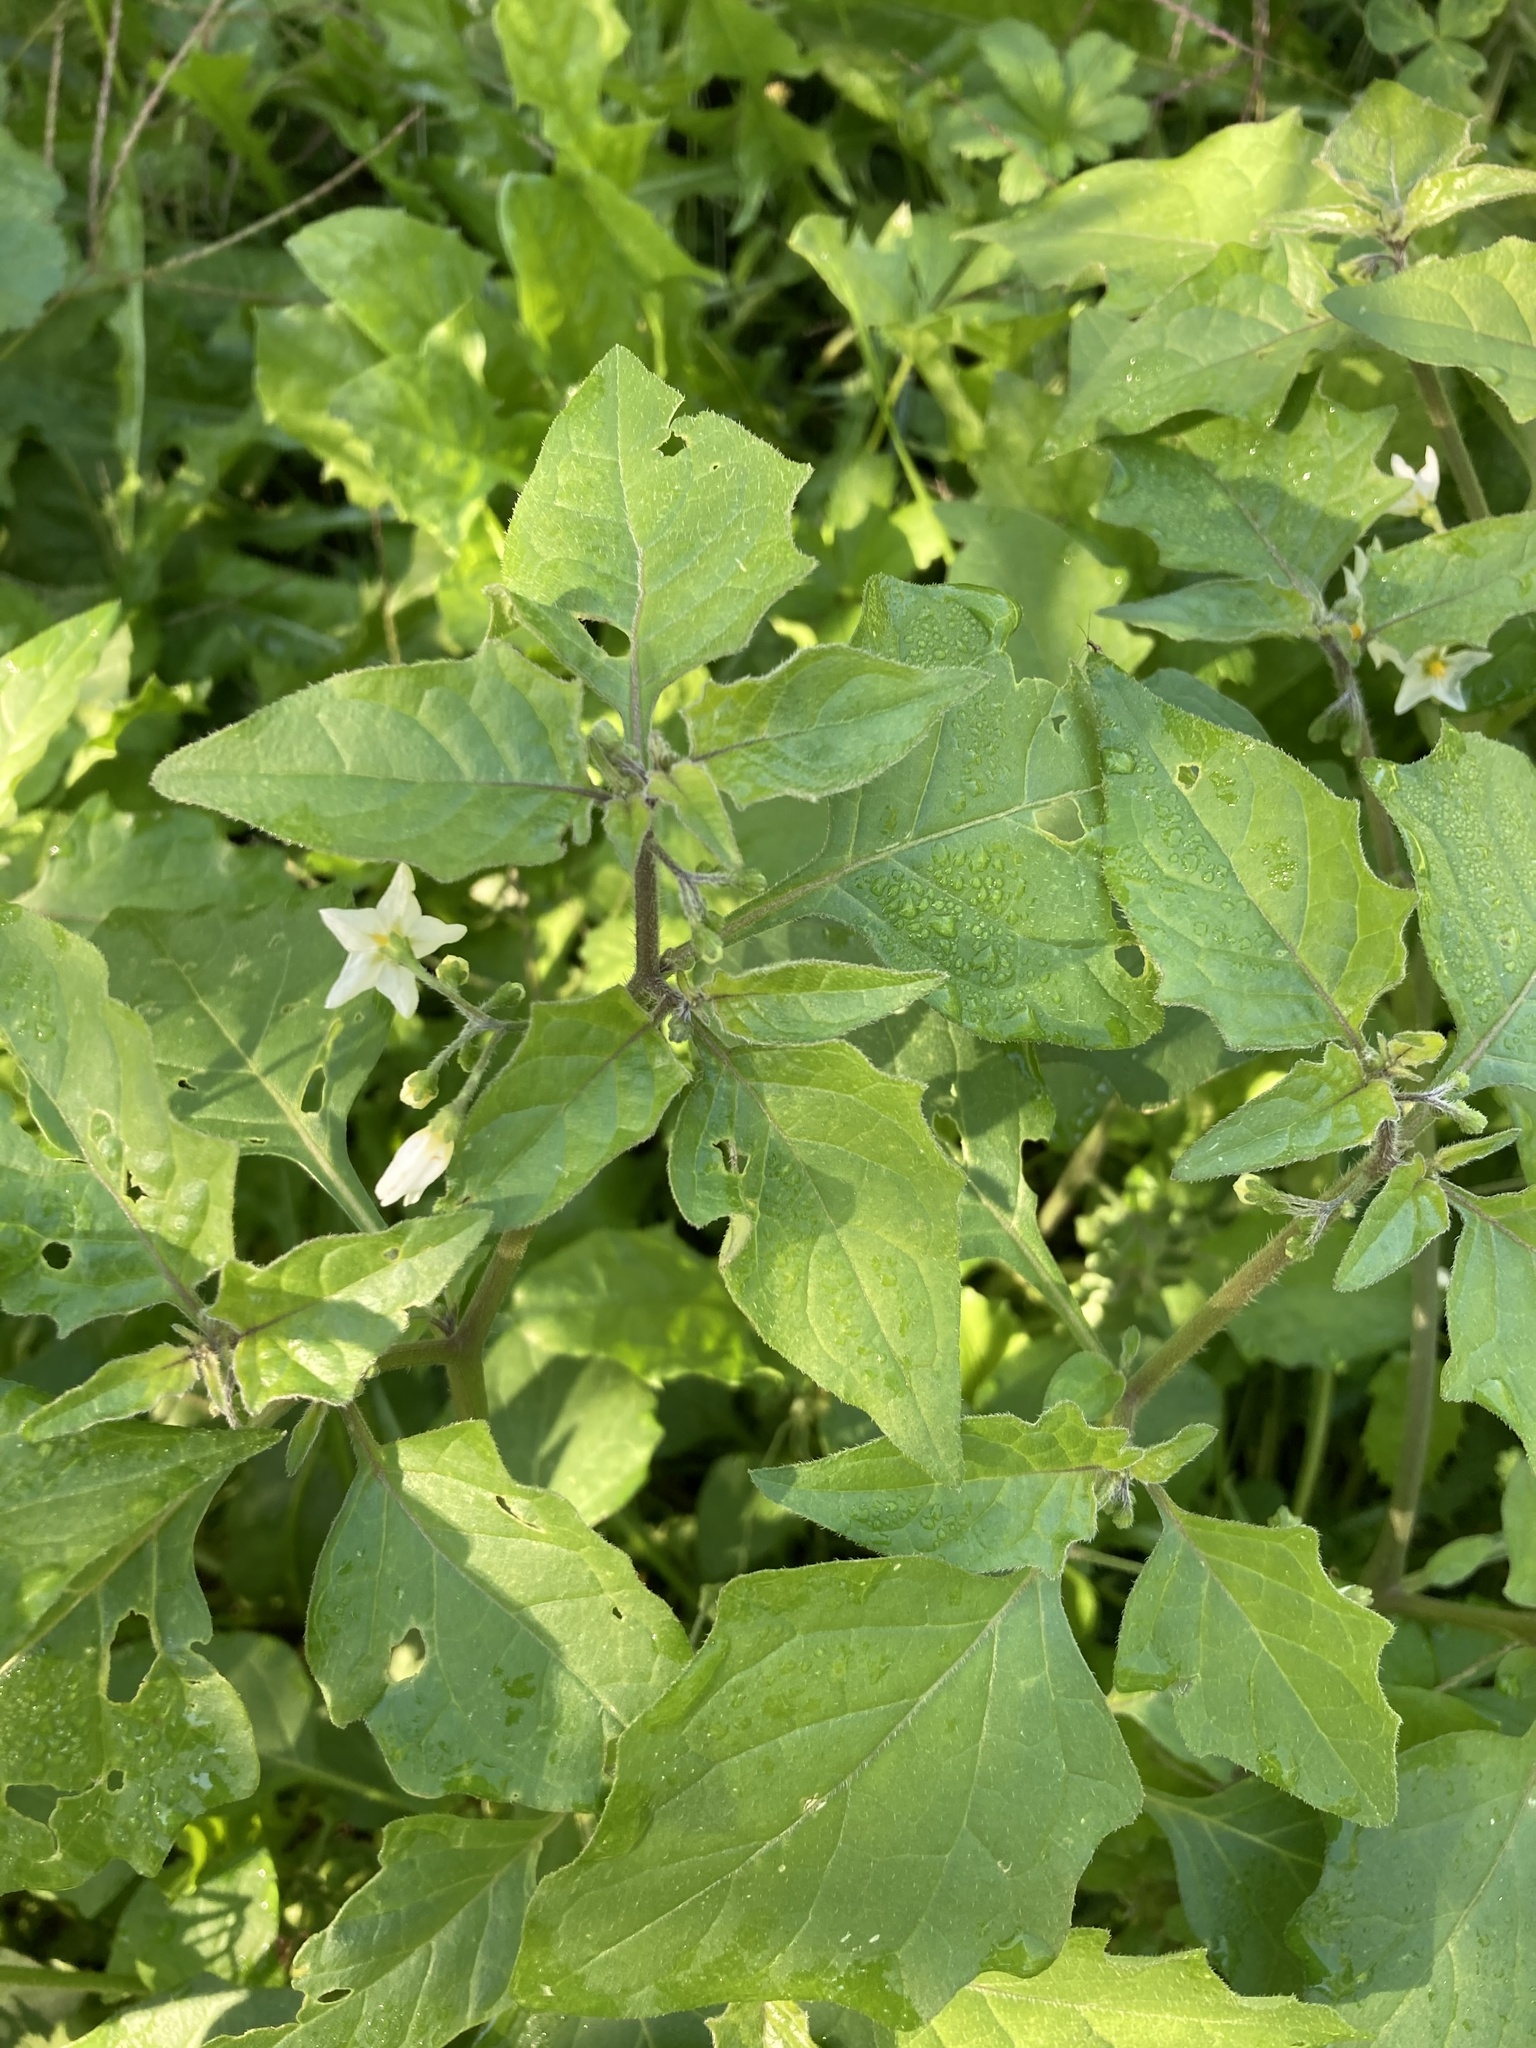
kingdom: Plantae
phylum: Tracheophyta
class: Magnoliopsida
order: Solanales
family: Solanaceae
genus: Solanum
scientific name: Solanum nigrum
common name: Black nightshade
